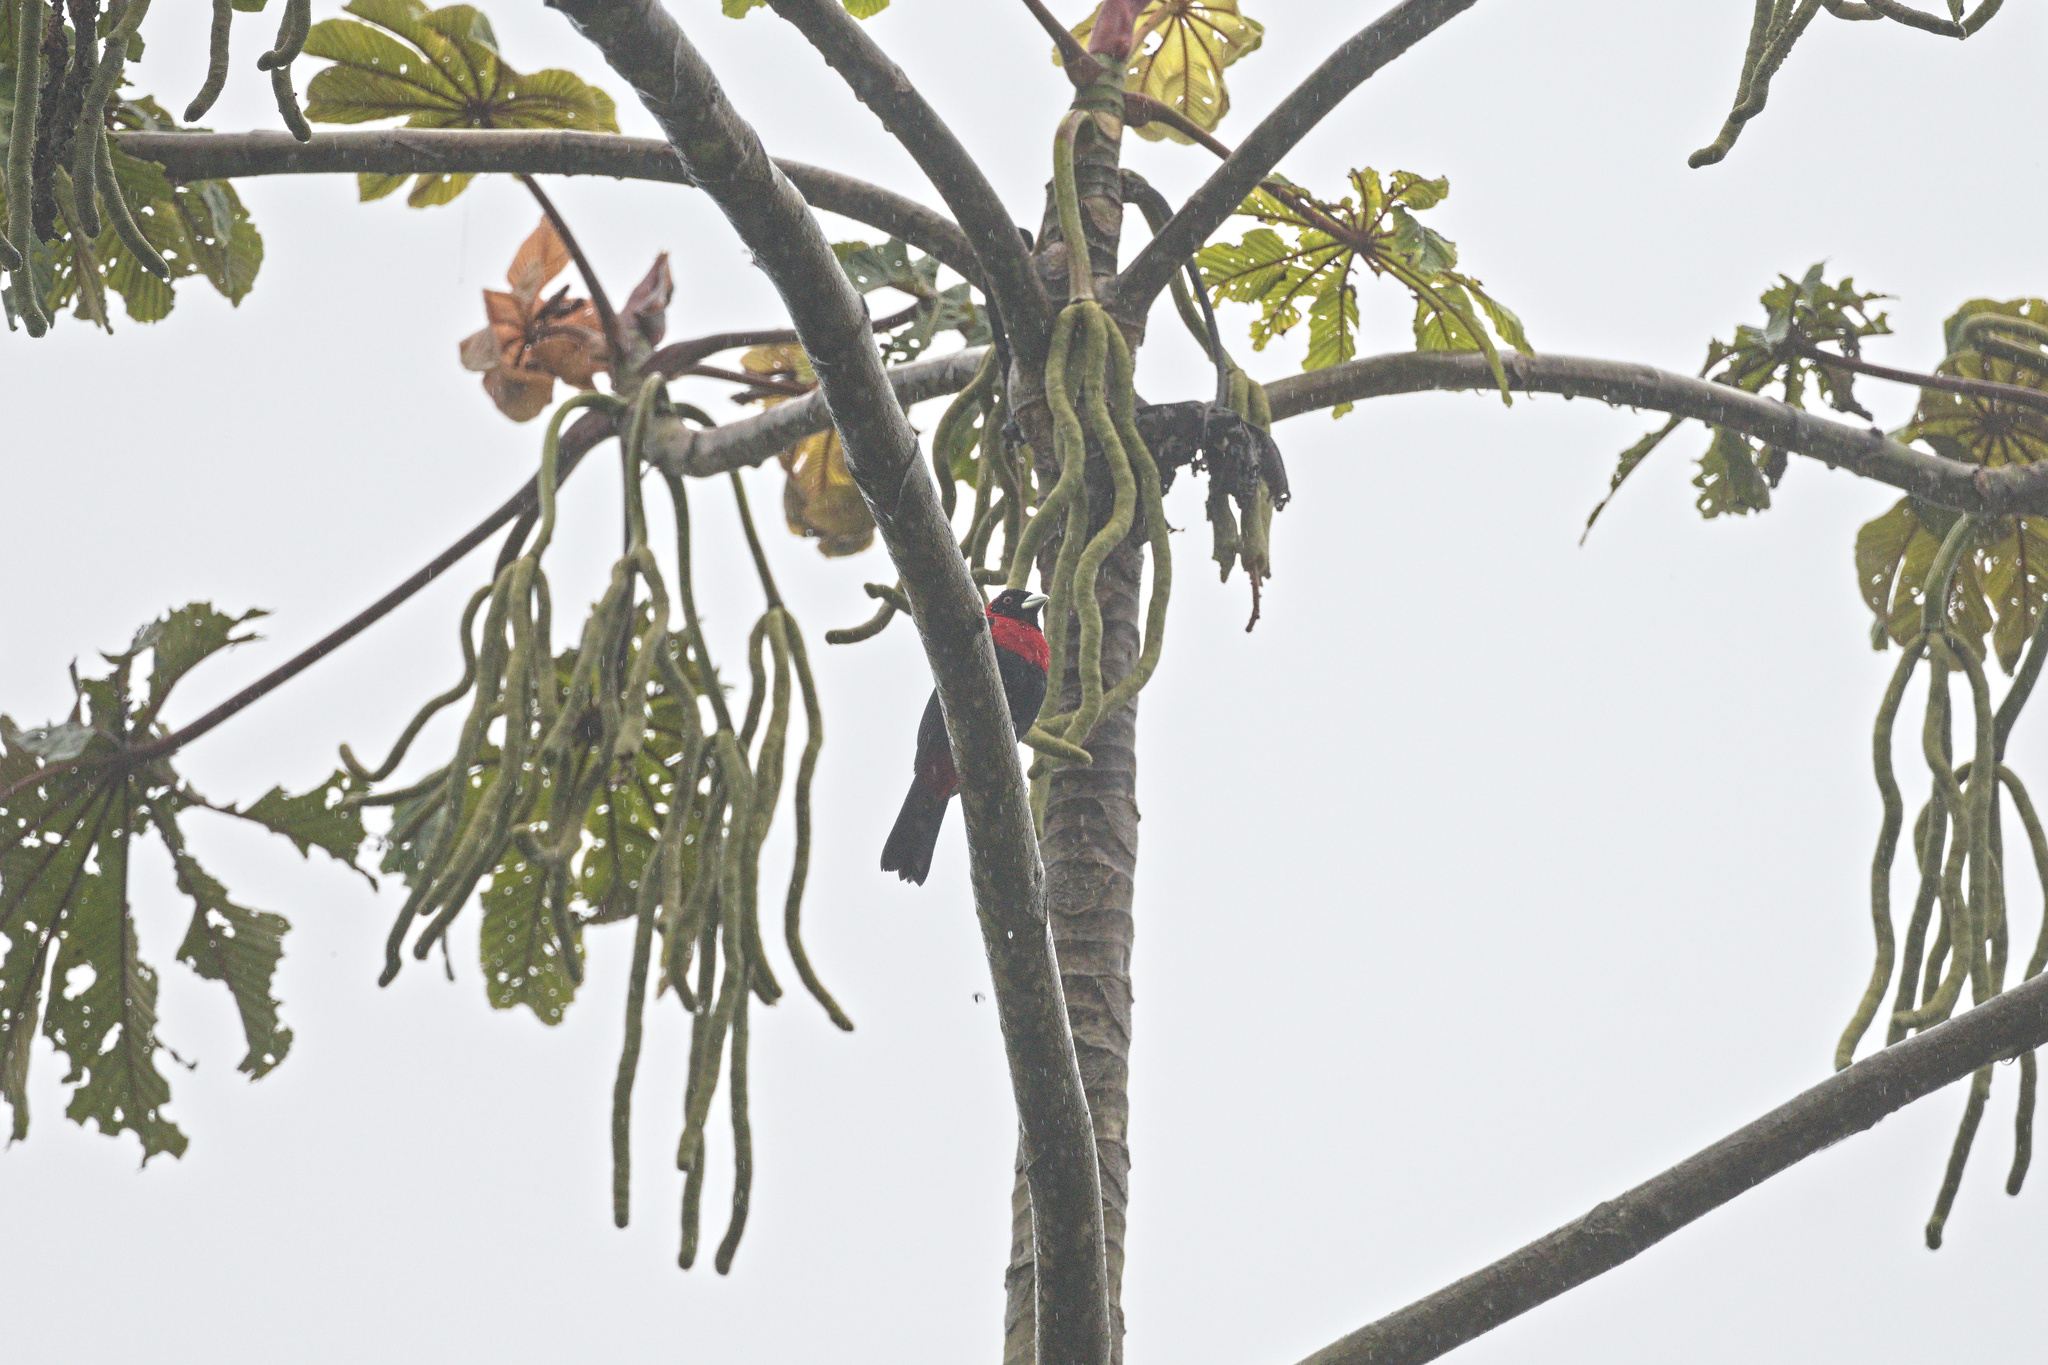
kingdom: Animalia
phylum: Chordata
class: Aves
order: Passeriformes
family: Thraupidae
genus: Ramphocelus
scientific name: Ramphocelus sanguinolentus
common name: Crimson-collared tanager
